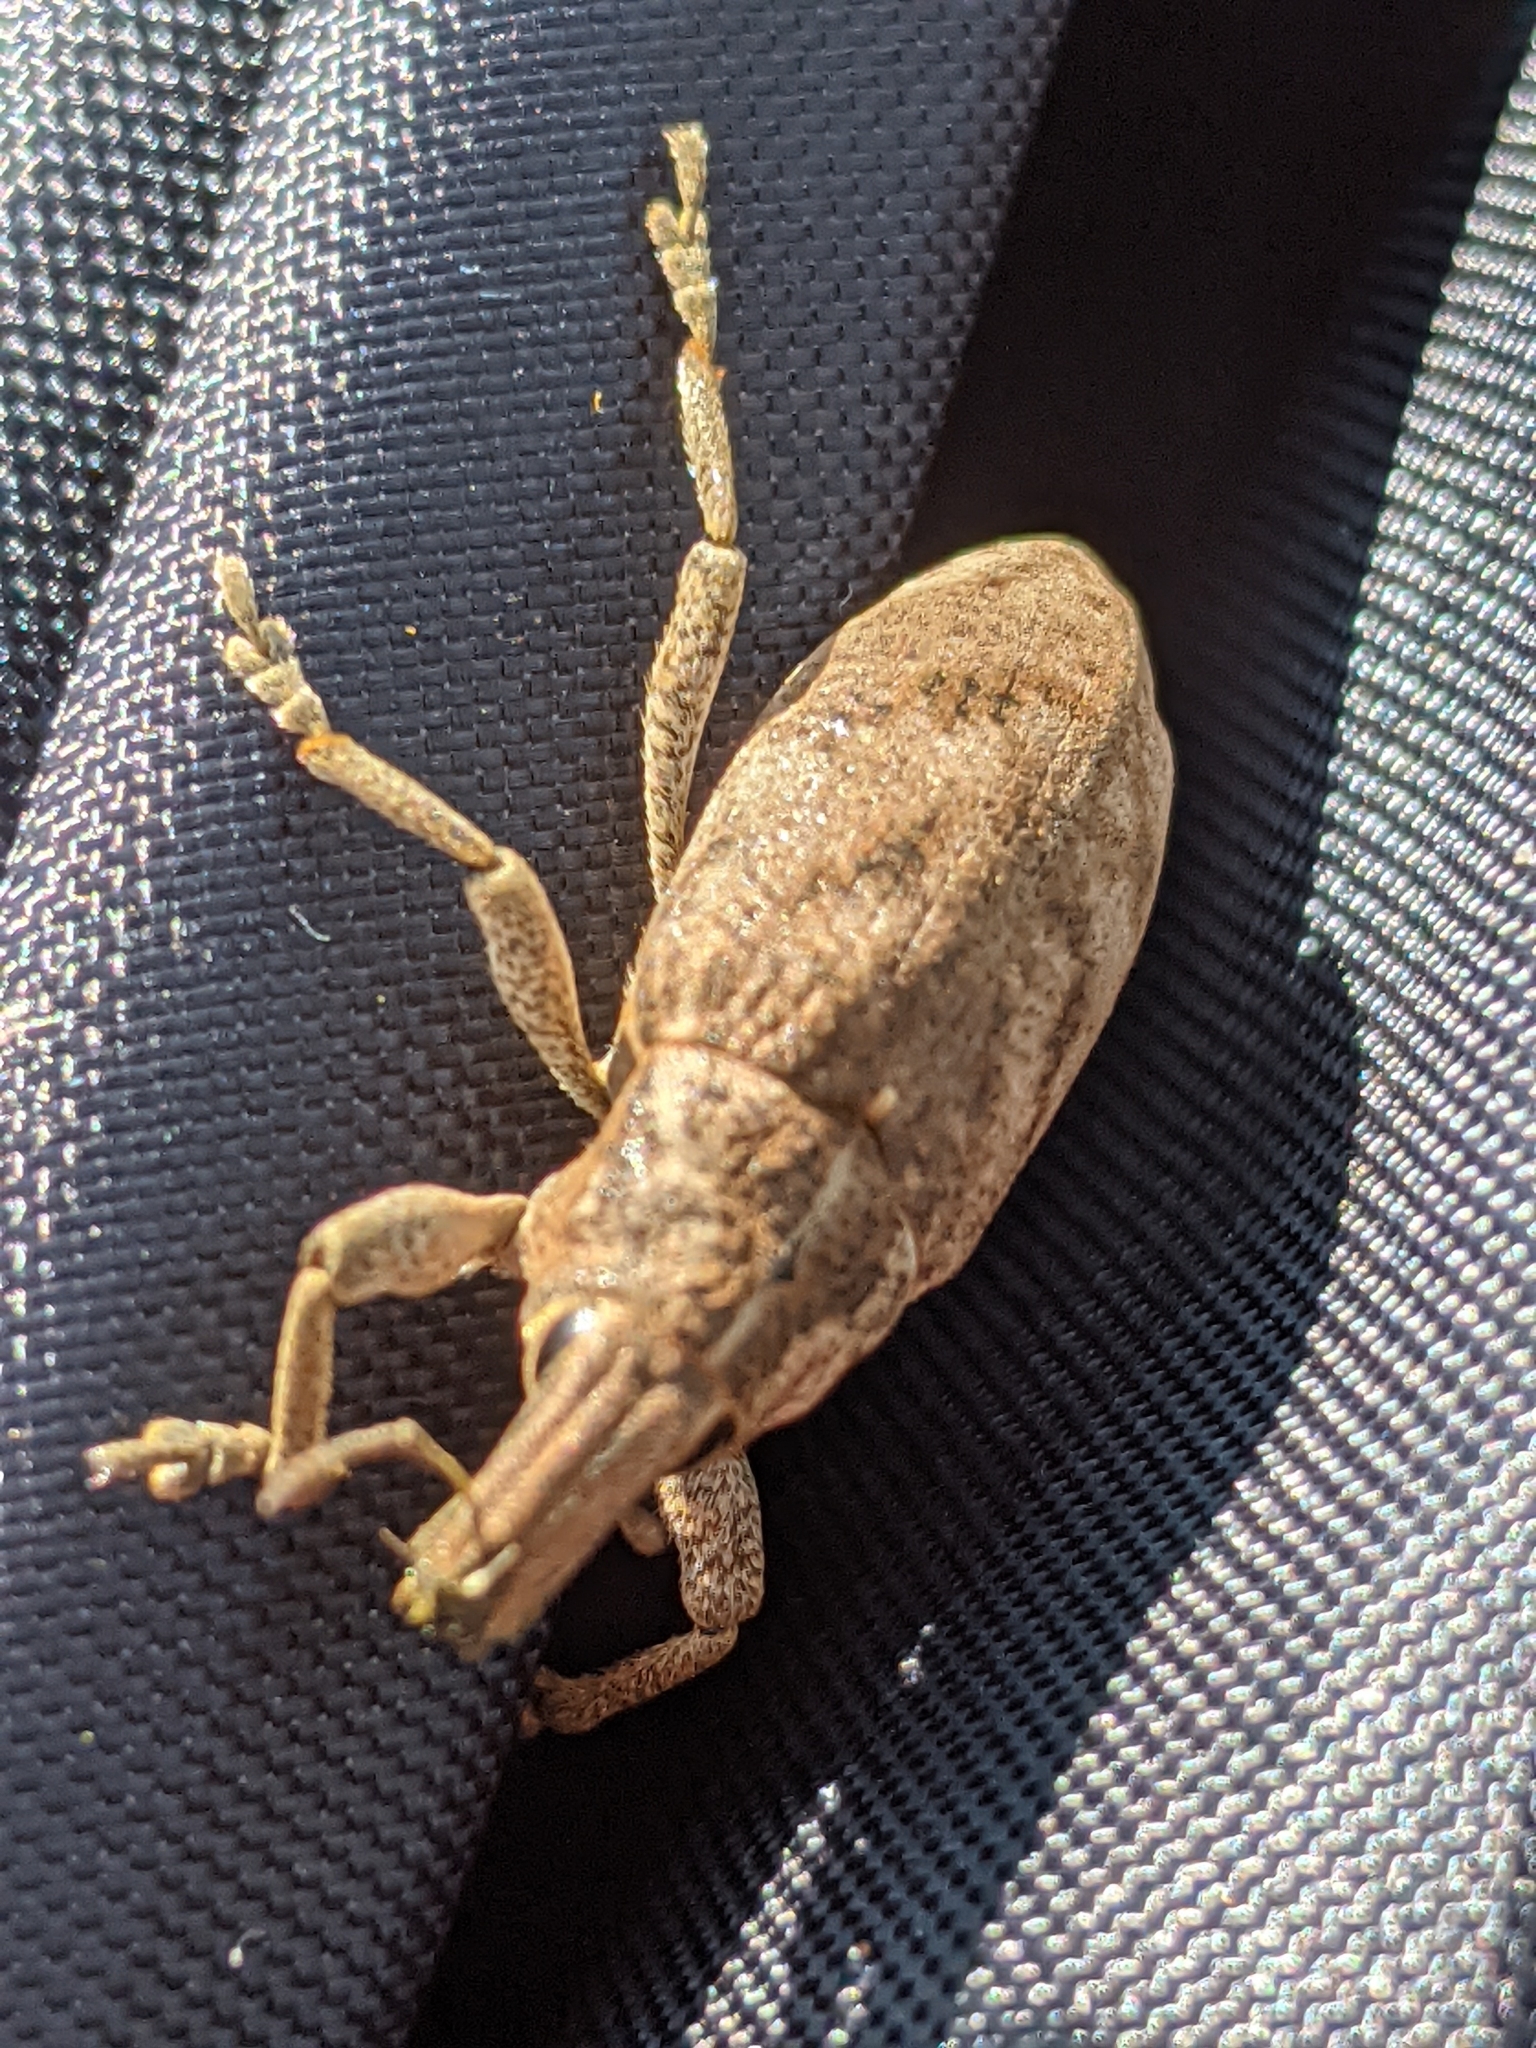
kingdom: Animalia
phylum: Arthropoda
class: Insecta
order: Coleoptera
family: Curculionidae
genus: Cleonis
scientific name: Cleonis pigra
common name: Large thistle weevil
